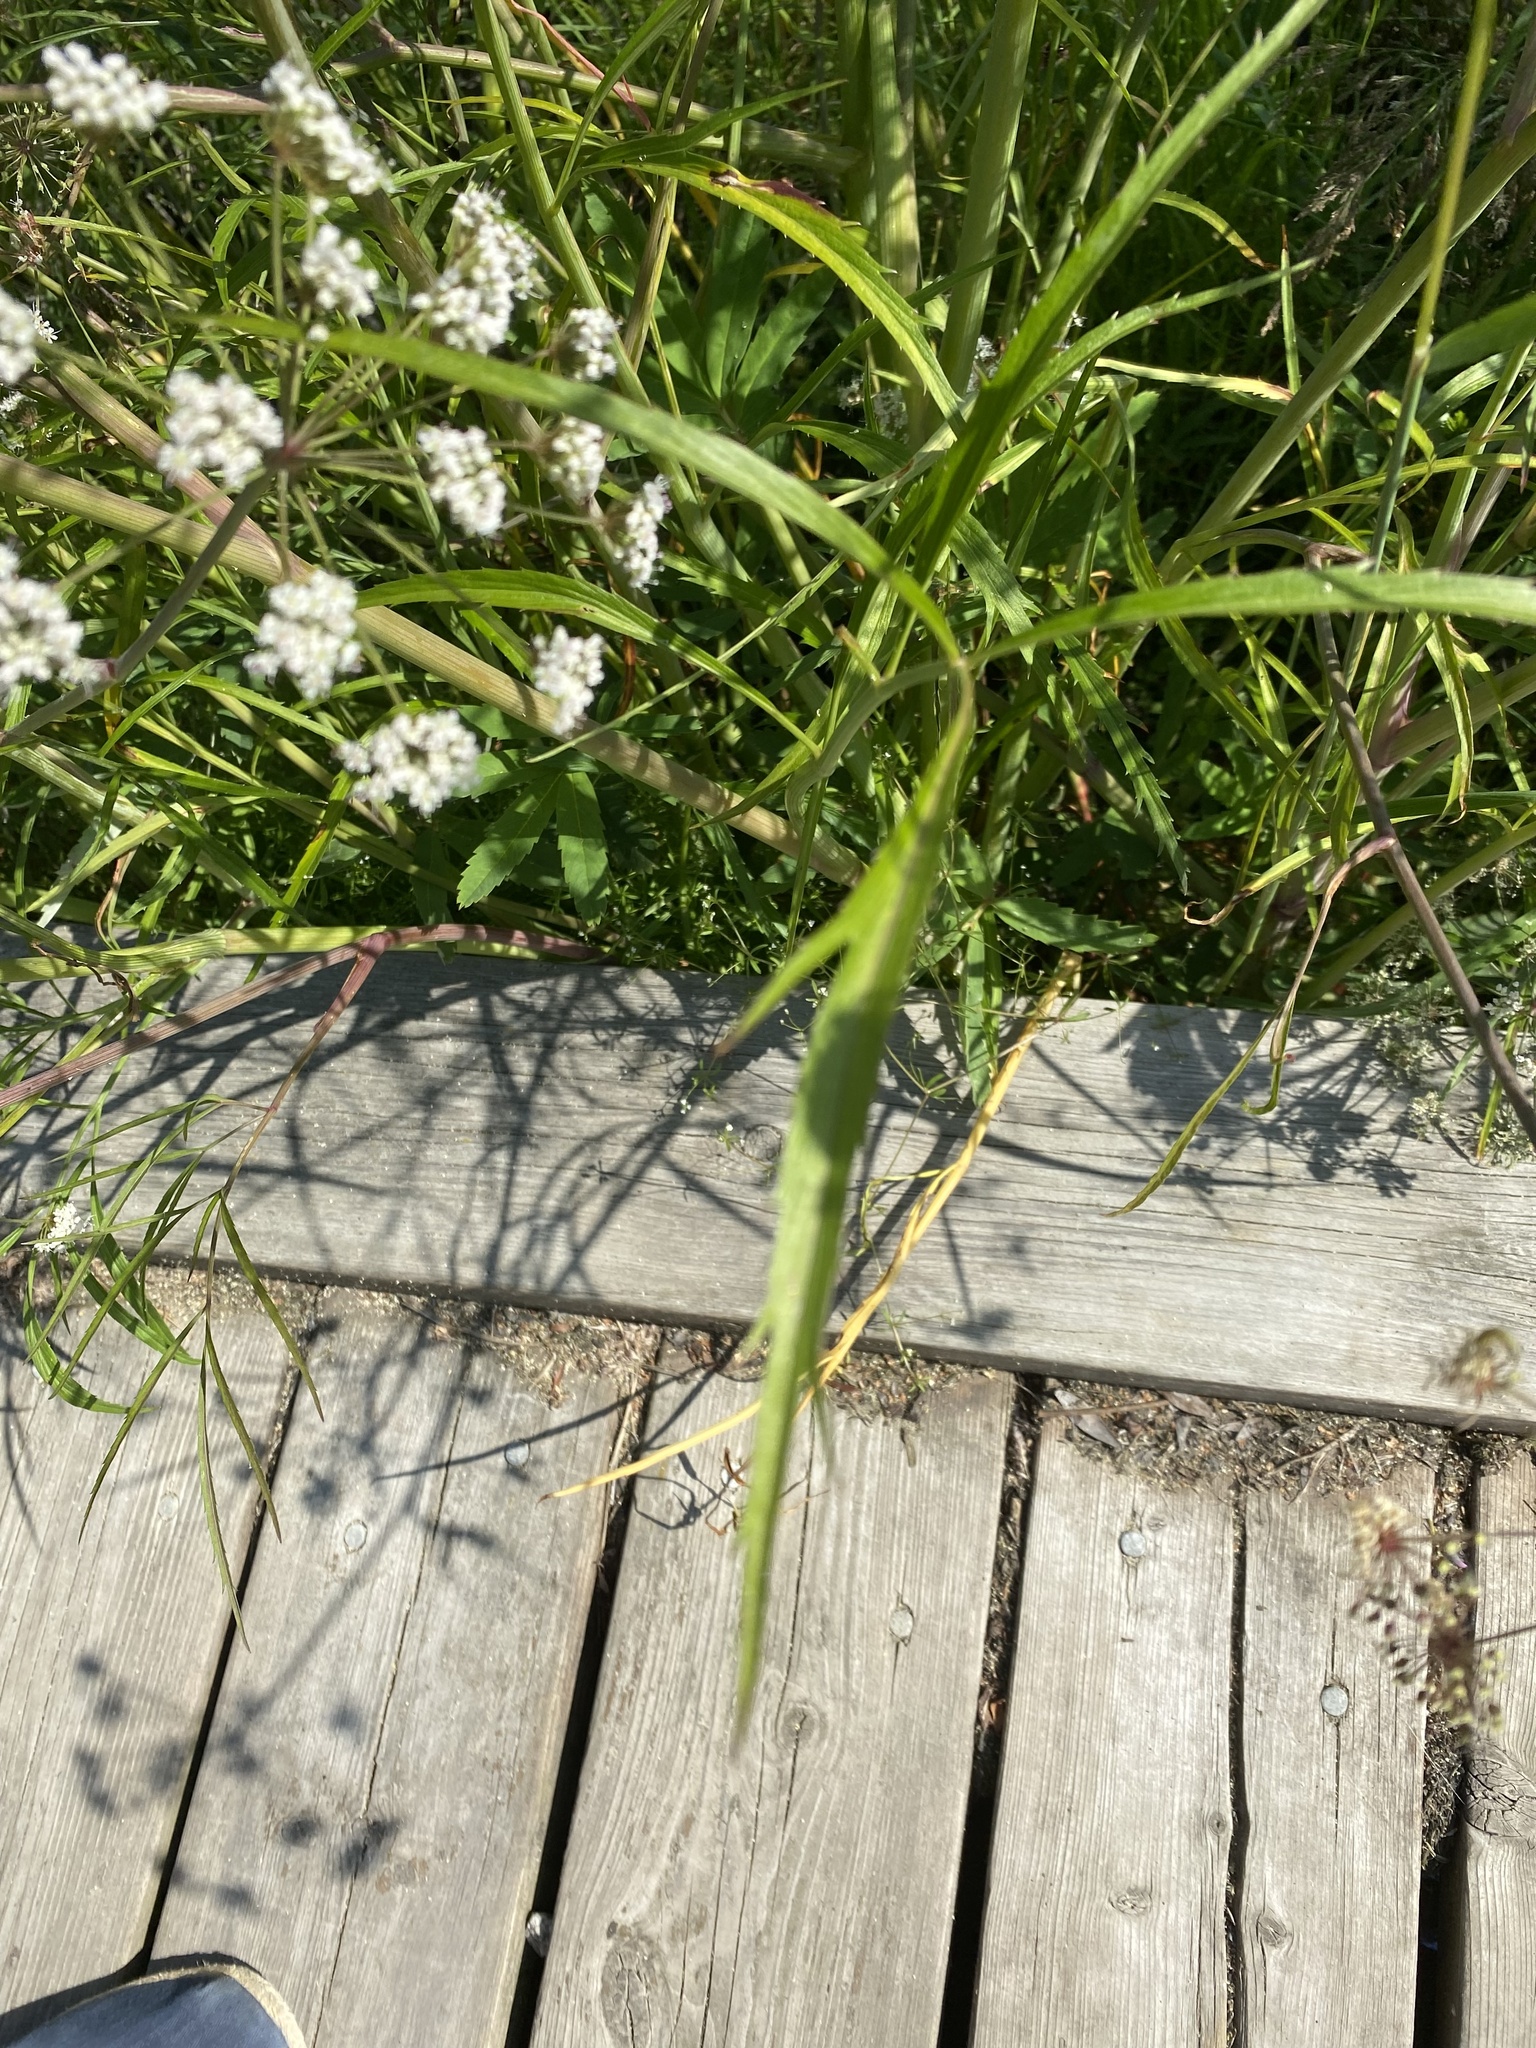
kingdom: Plantae
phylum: Tracheophyta
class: Magnoliopsida
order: Apiales
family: Apiaceae
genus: Cicuta
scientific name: Cicuta virosa
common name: Cowbane
